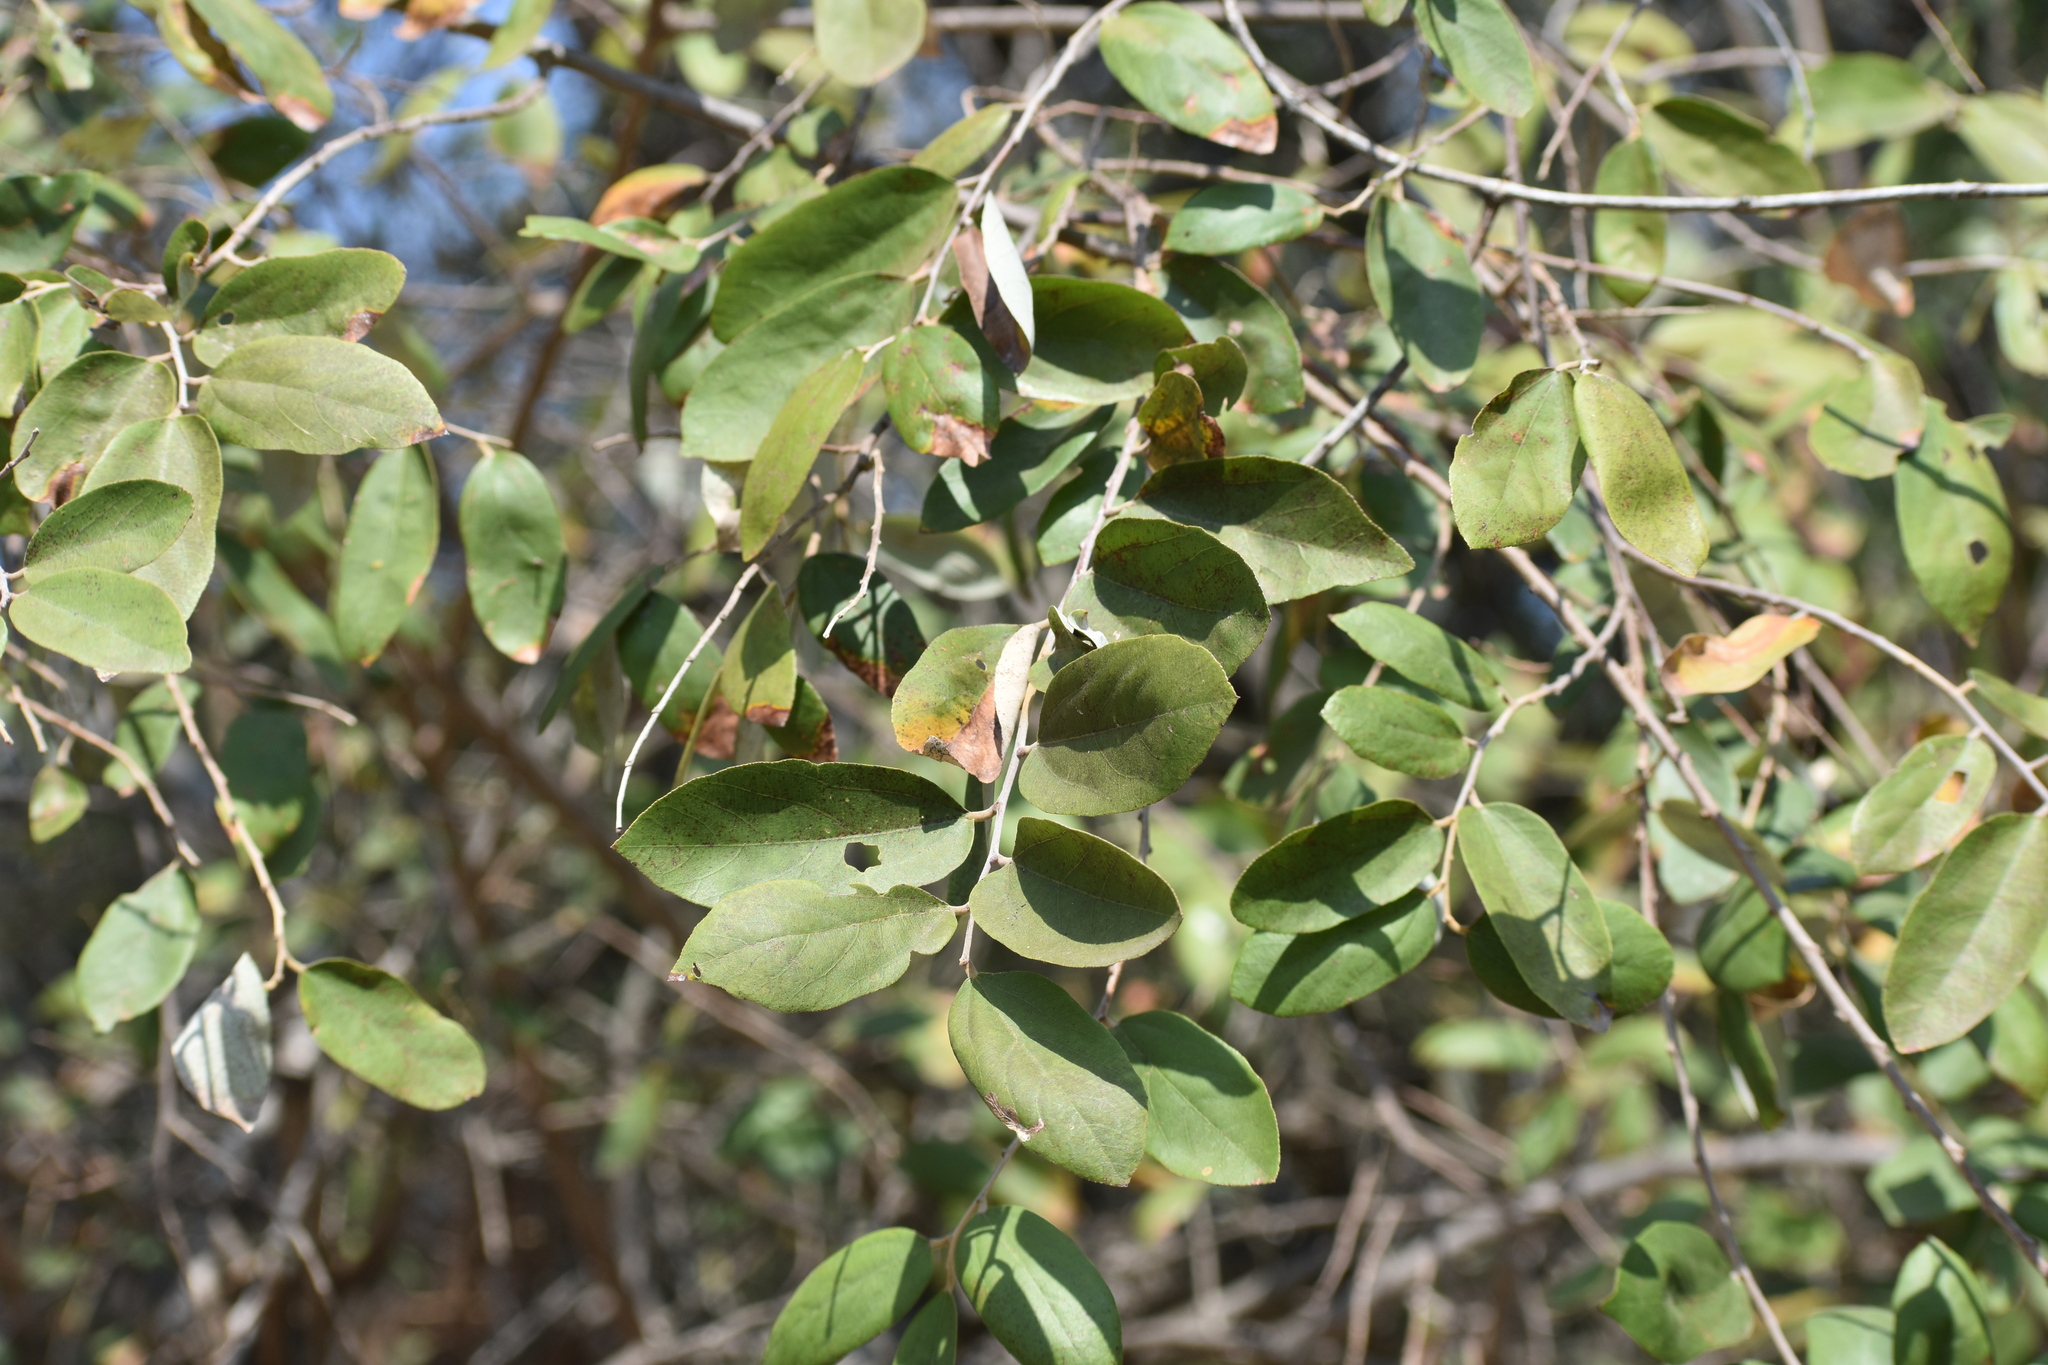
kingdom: Plantae
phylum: Tracheophyta
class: Magnoliopsida
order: Malvales
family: Malvaceae
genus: Grewia
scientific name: Grewia hexamita
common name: Giant raisin
